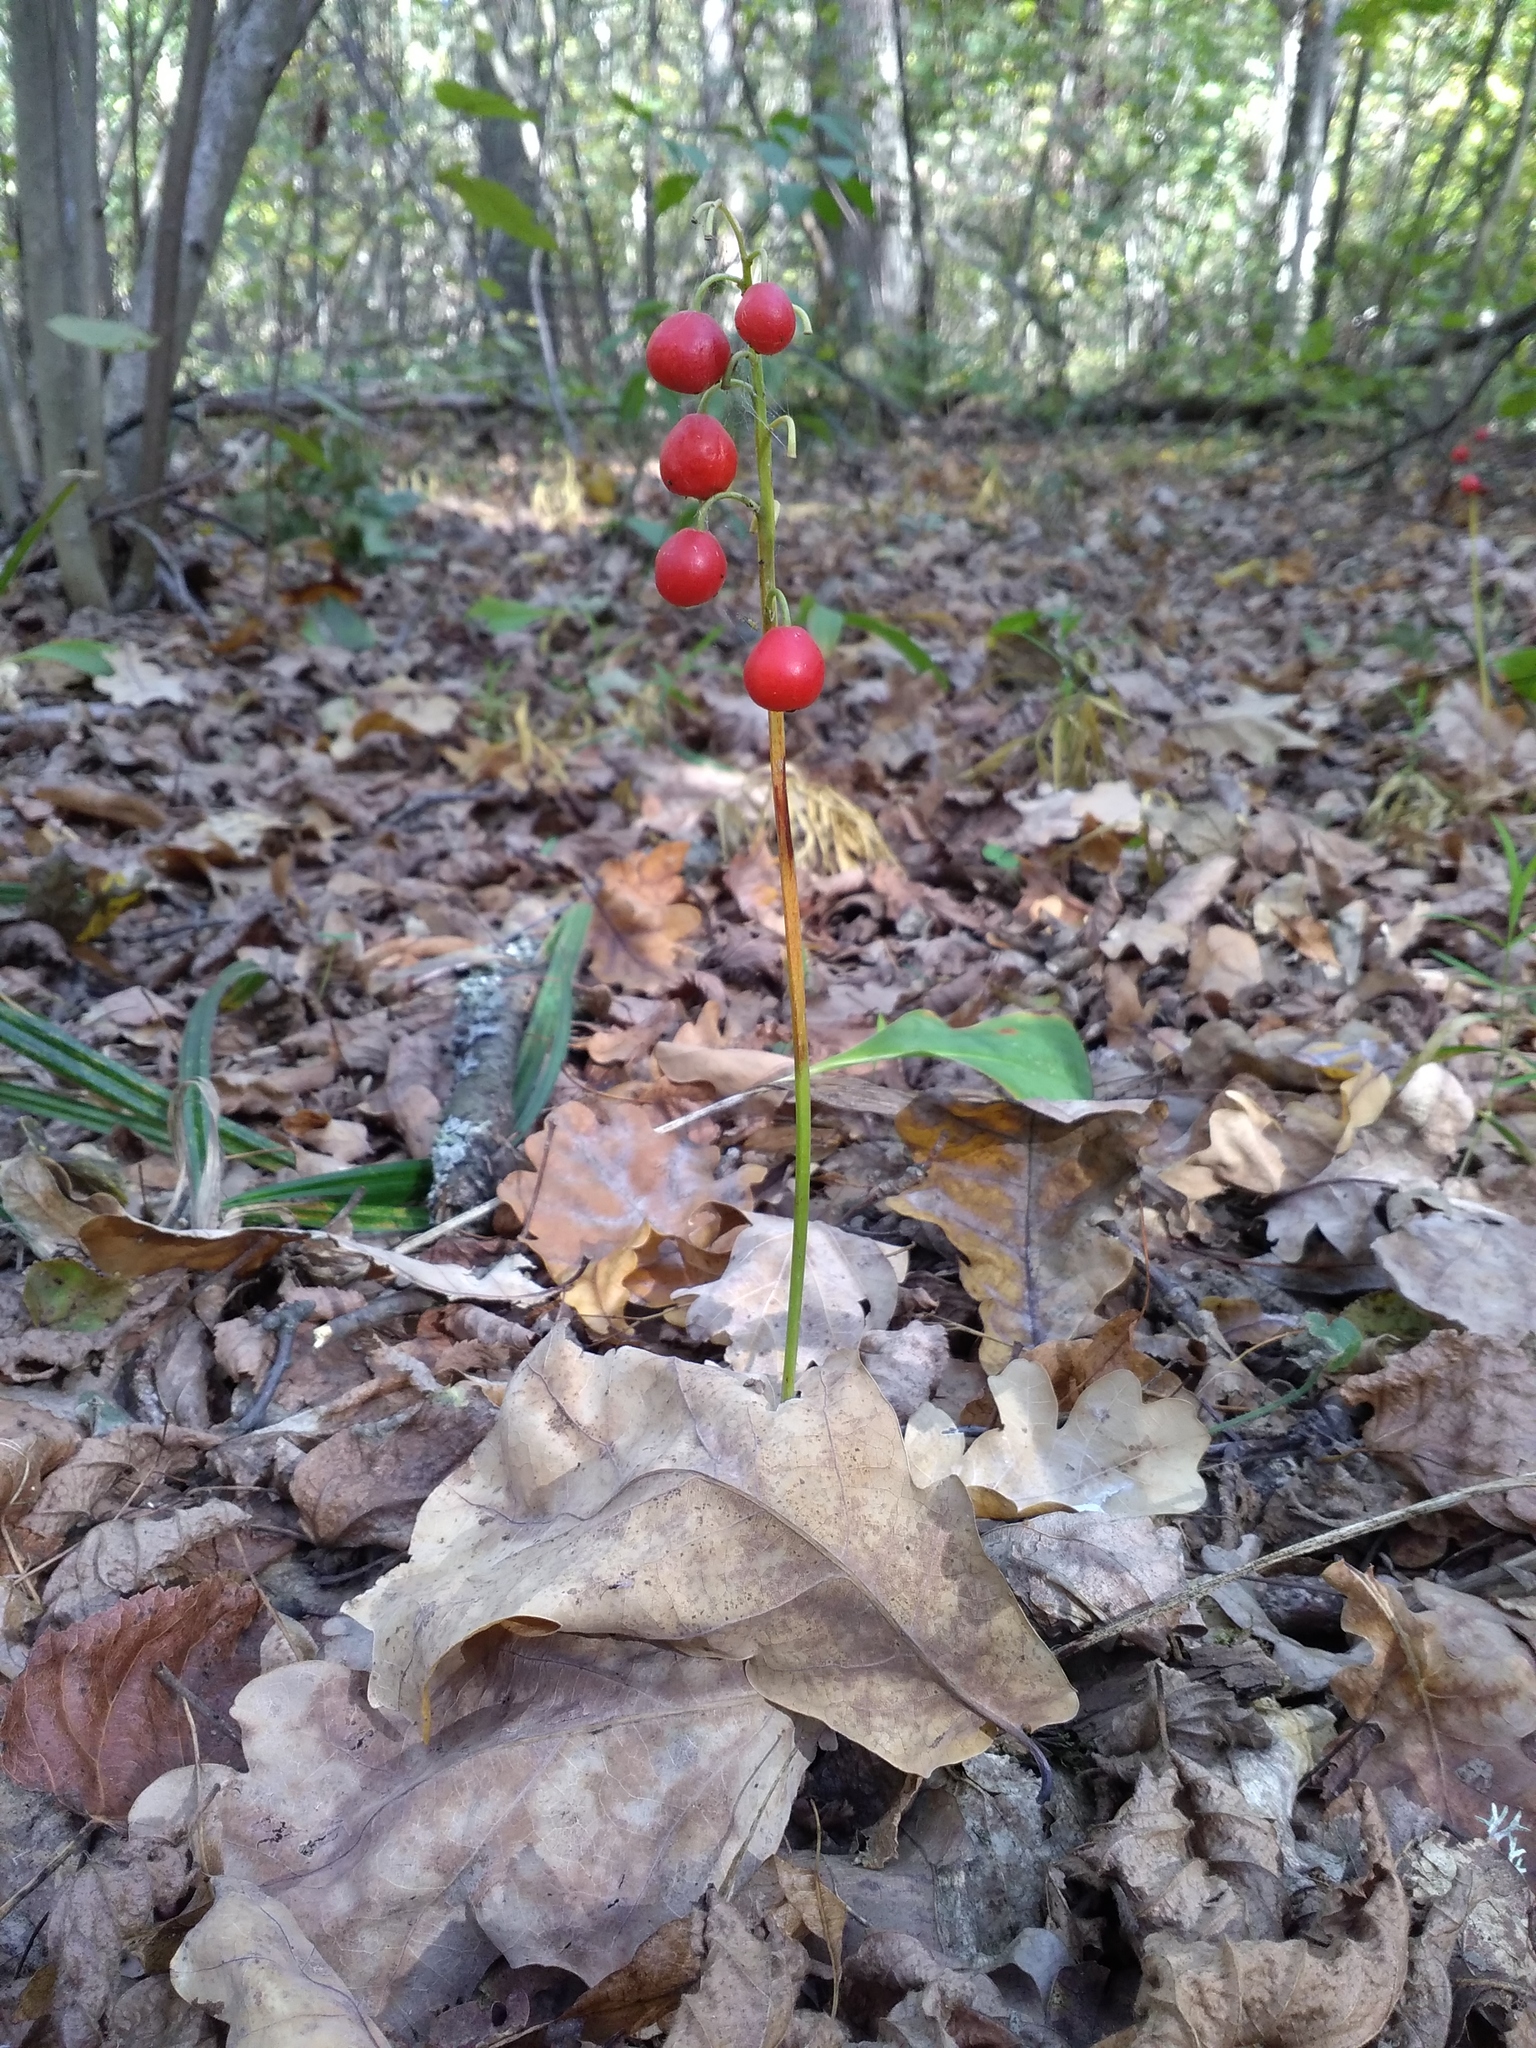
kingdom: Plantae
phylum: Tracheophyta
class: Liliopsida
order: Asparagales
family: Asparagaceae
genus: Convallaria
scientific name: Convallaria majalis
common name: Lily-of-the-valley
